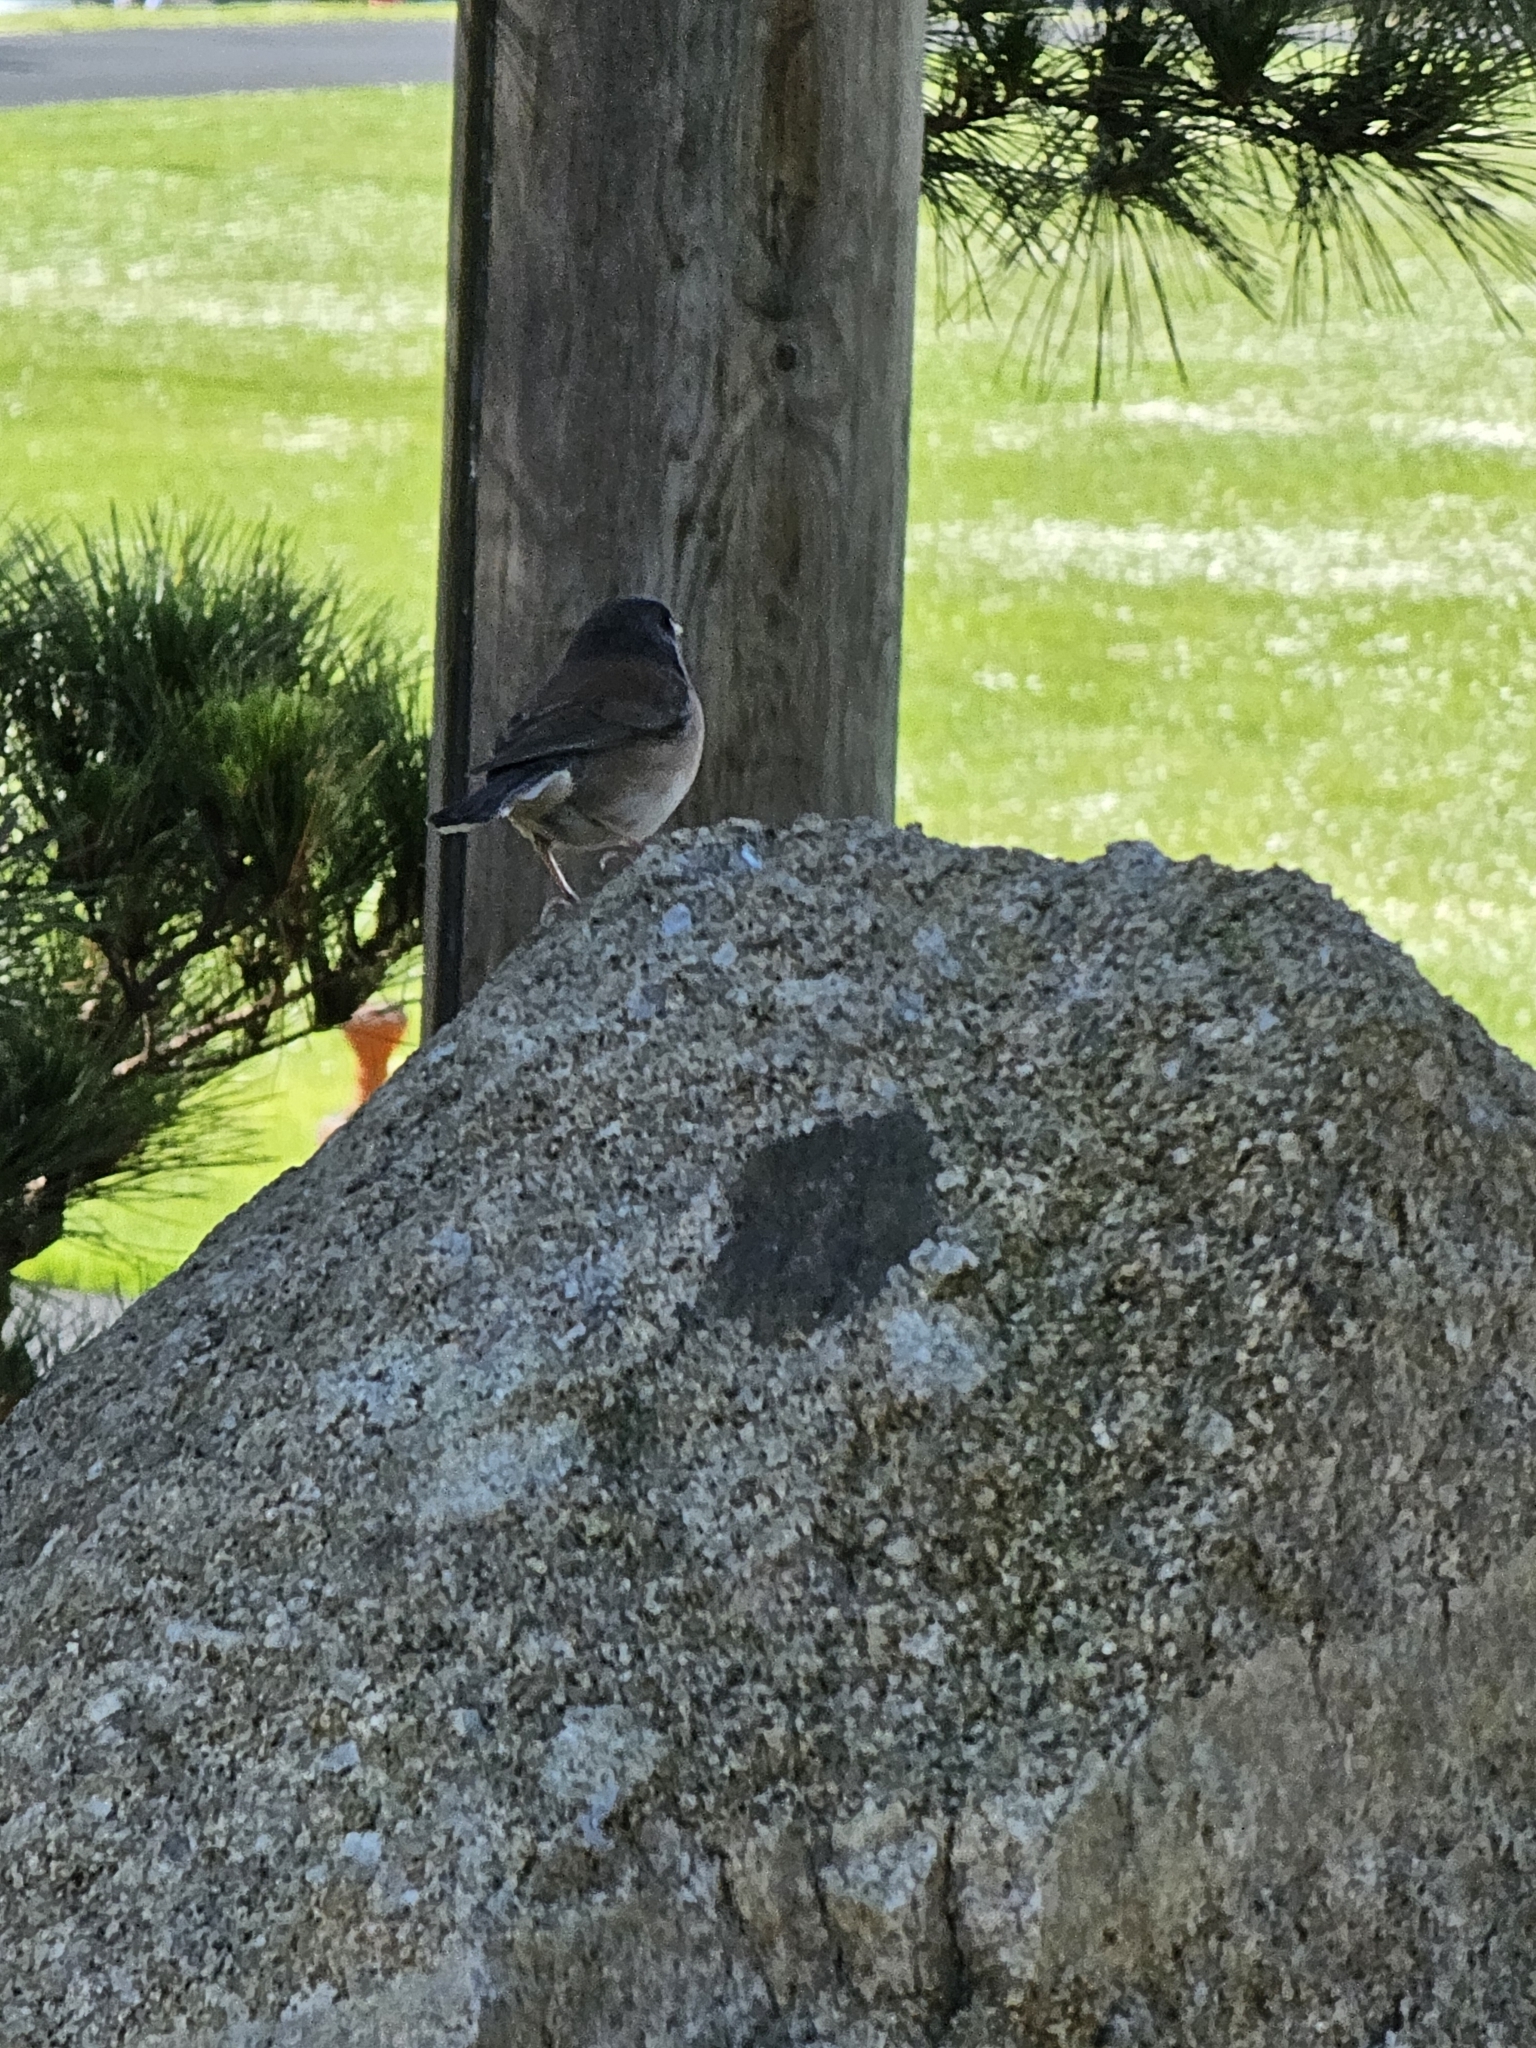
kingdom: Animalia
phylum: Chordata
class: Aves
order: Passeriformes
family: Passerellidae
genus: Junco
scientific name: Junco hyemalis
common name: Dark-eyed junco
